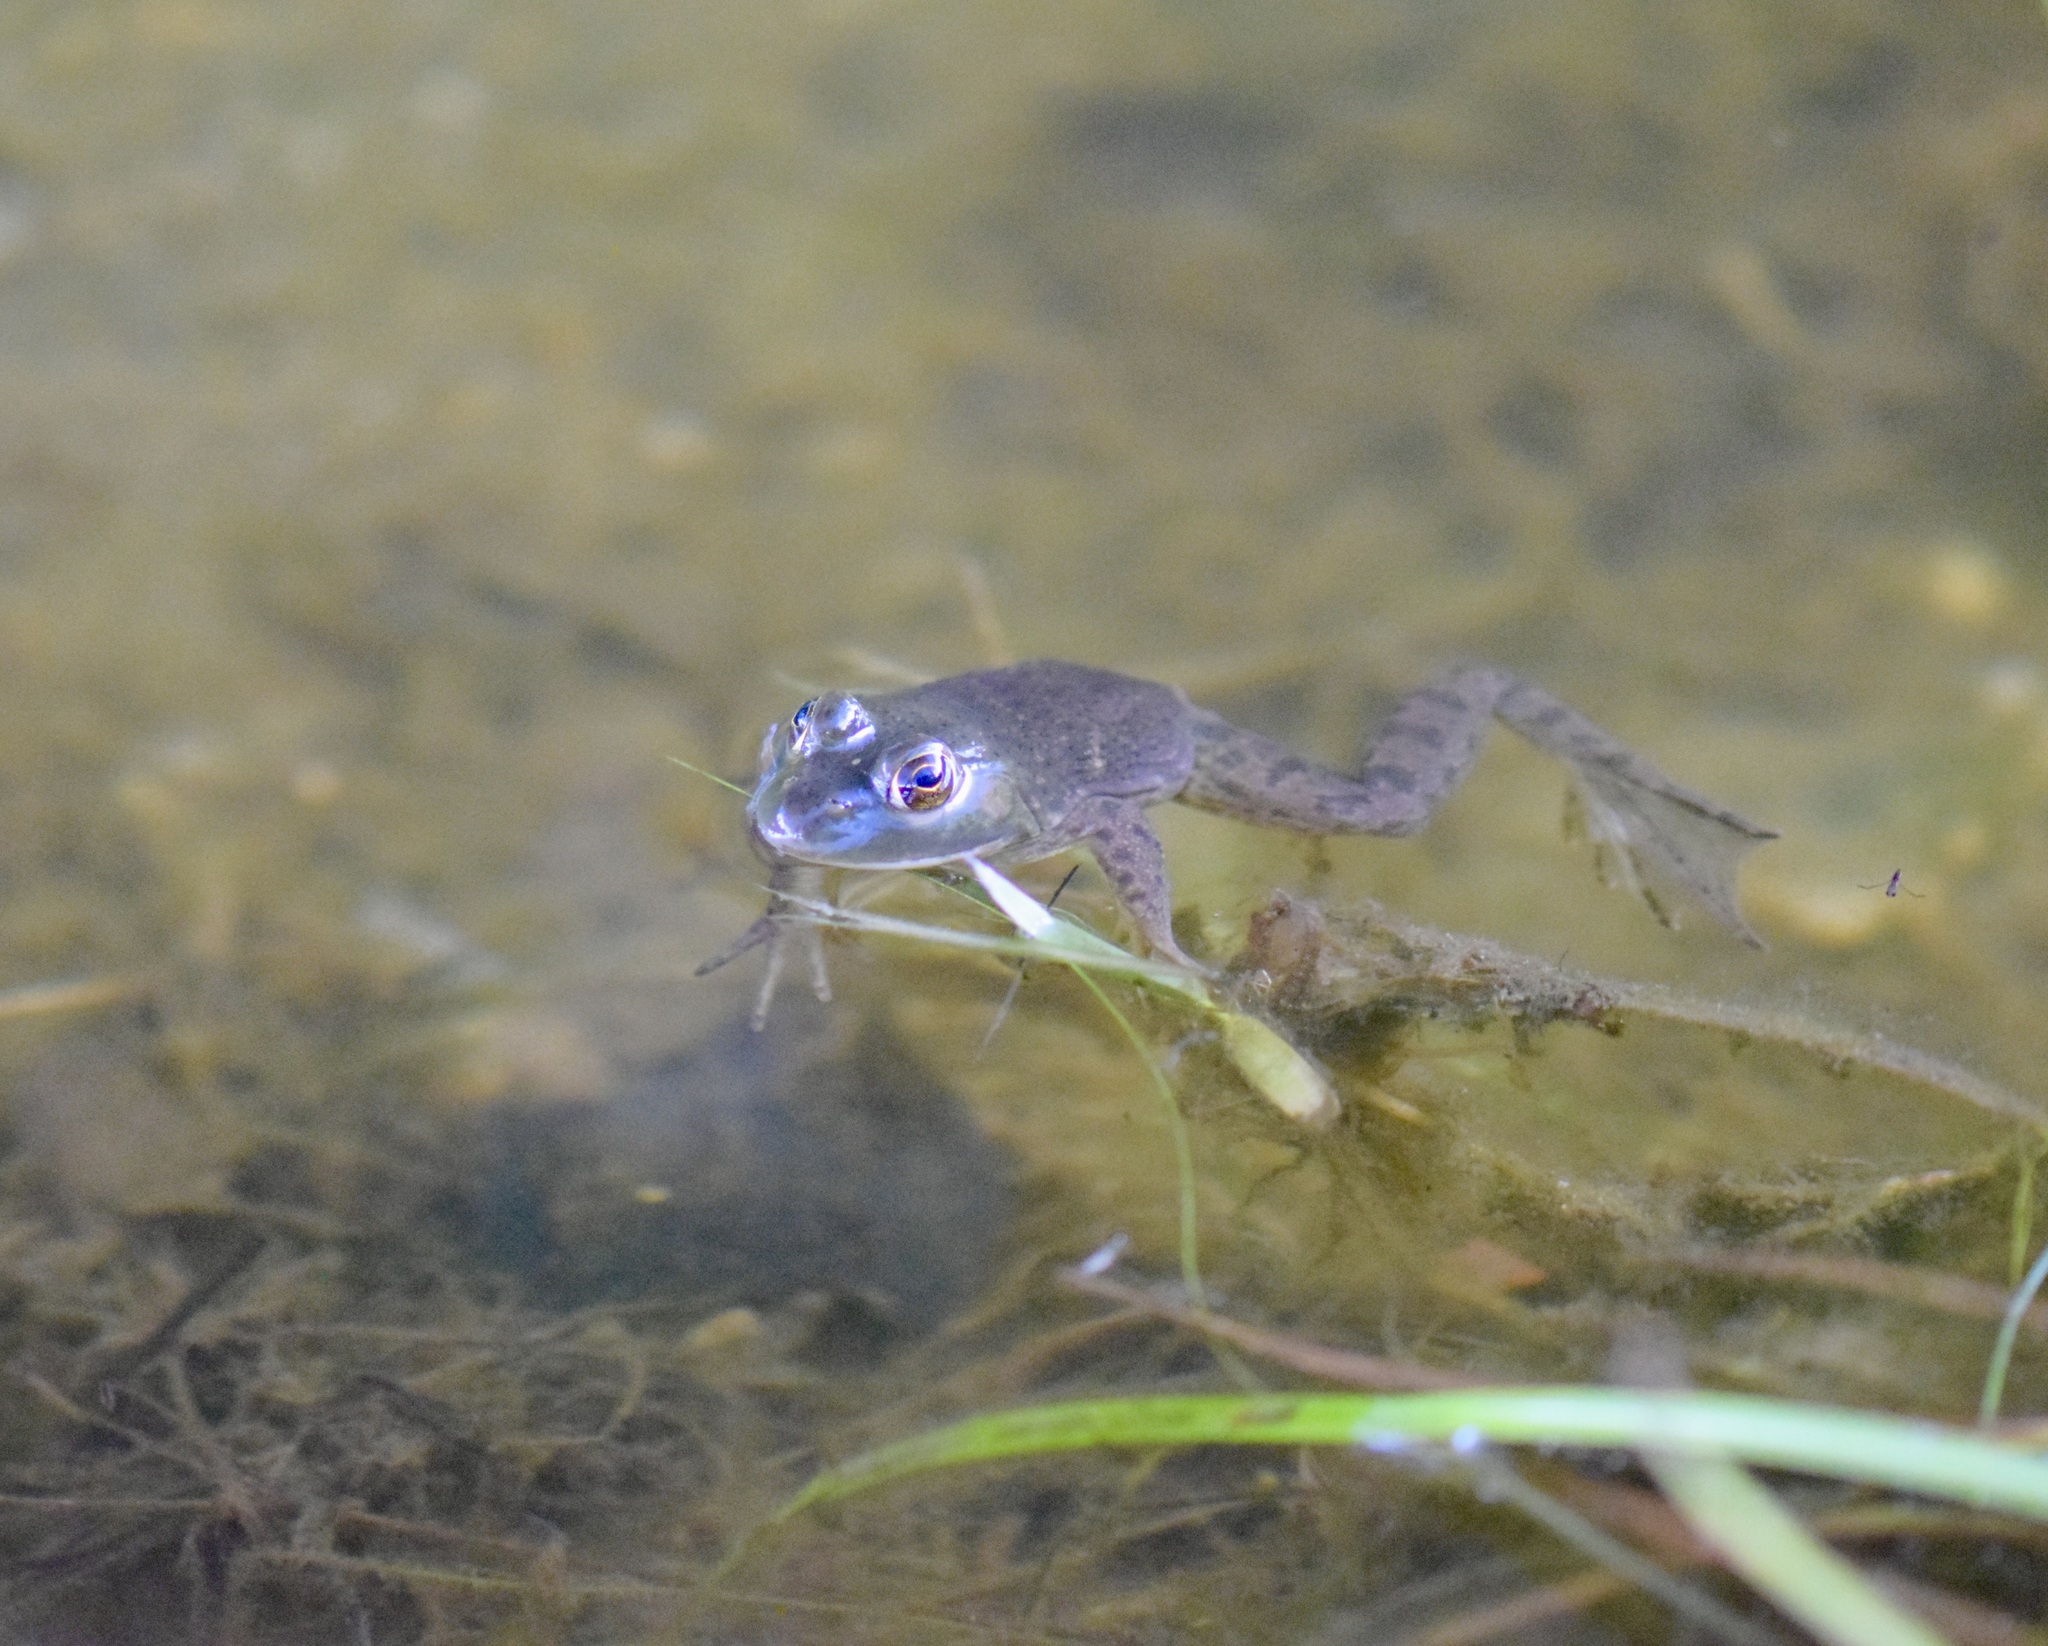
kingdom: Animalia
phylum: Chordata
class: Amphibia
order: Anura
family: Ranidae
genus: Lithobates
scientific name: Lithobates catesbeianus
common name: American bullfrog
